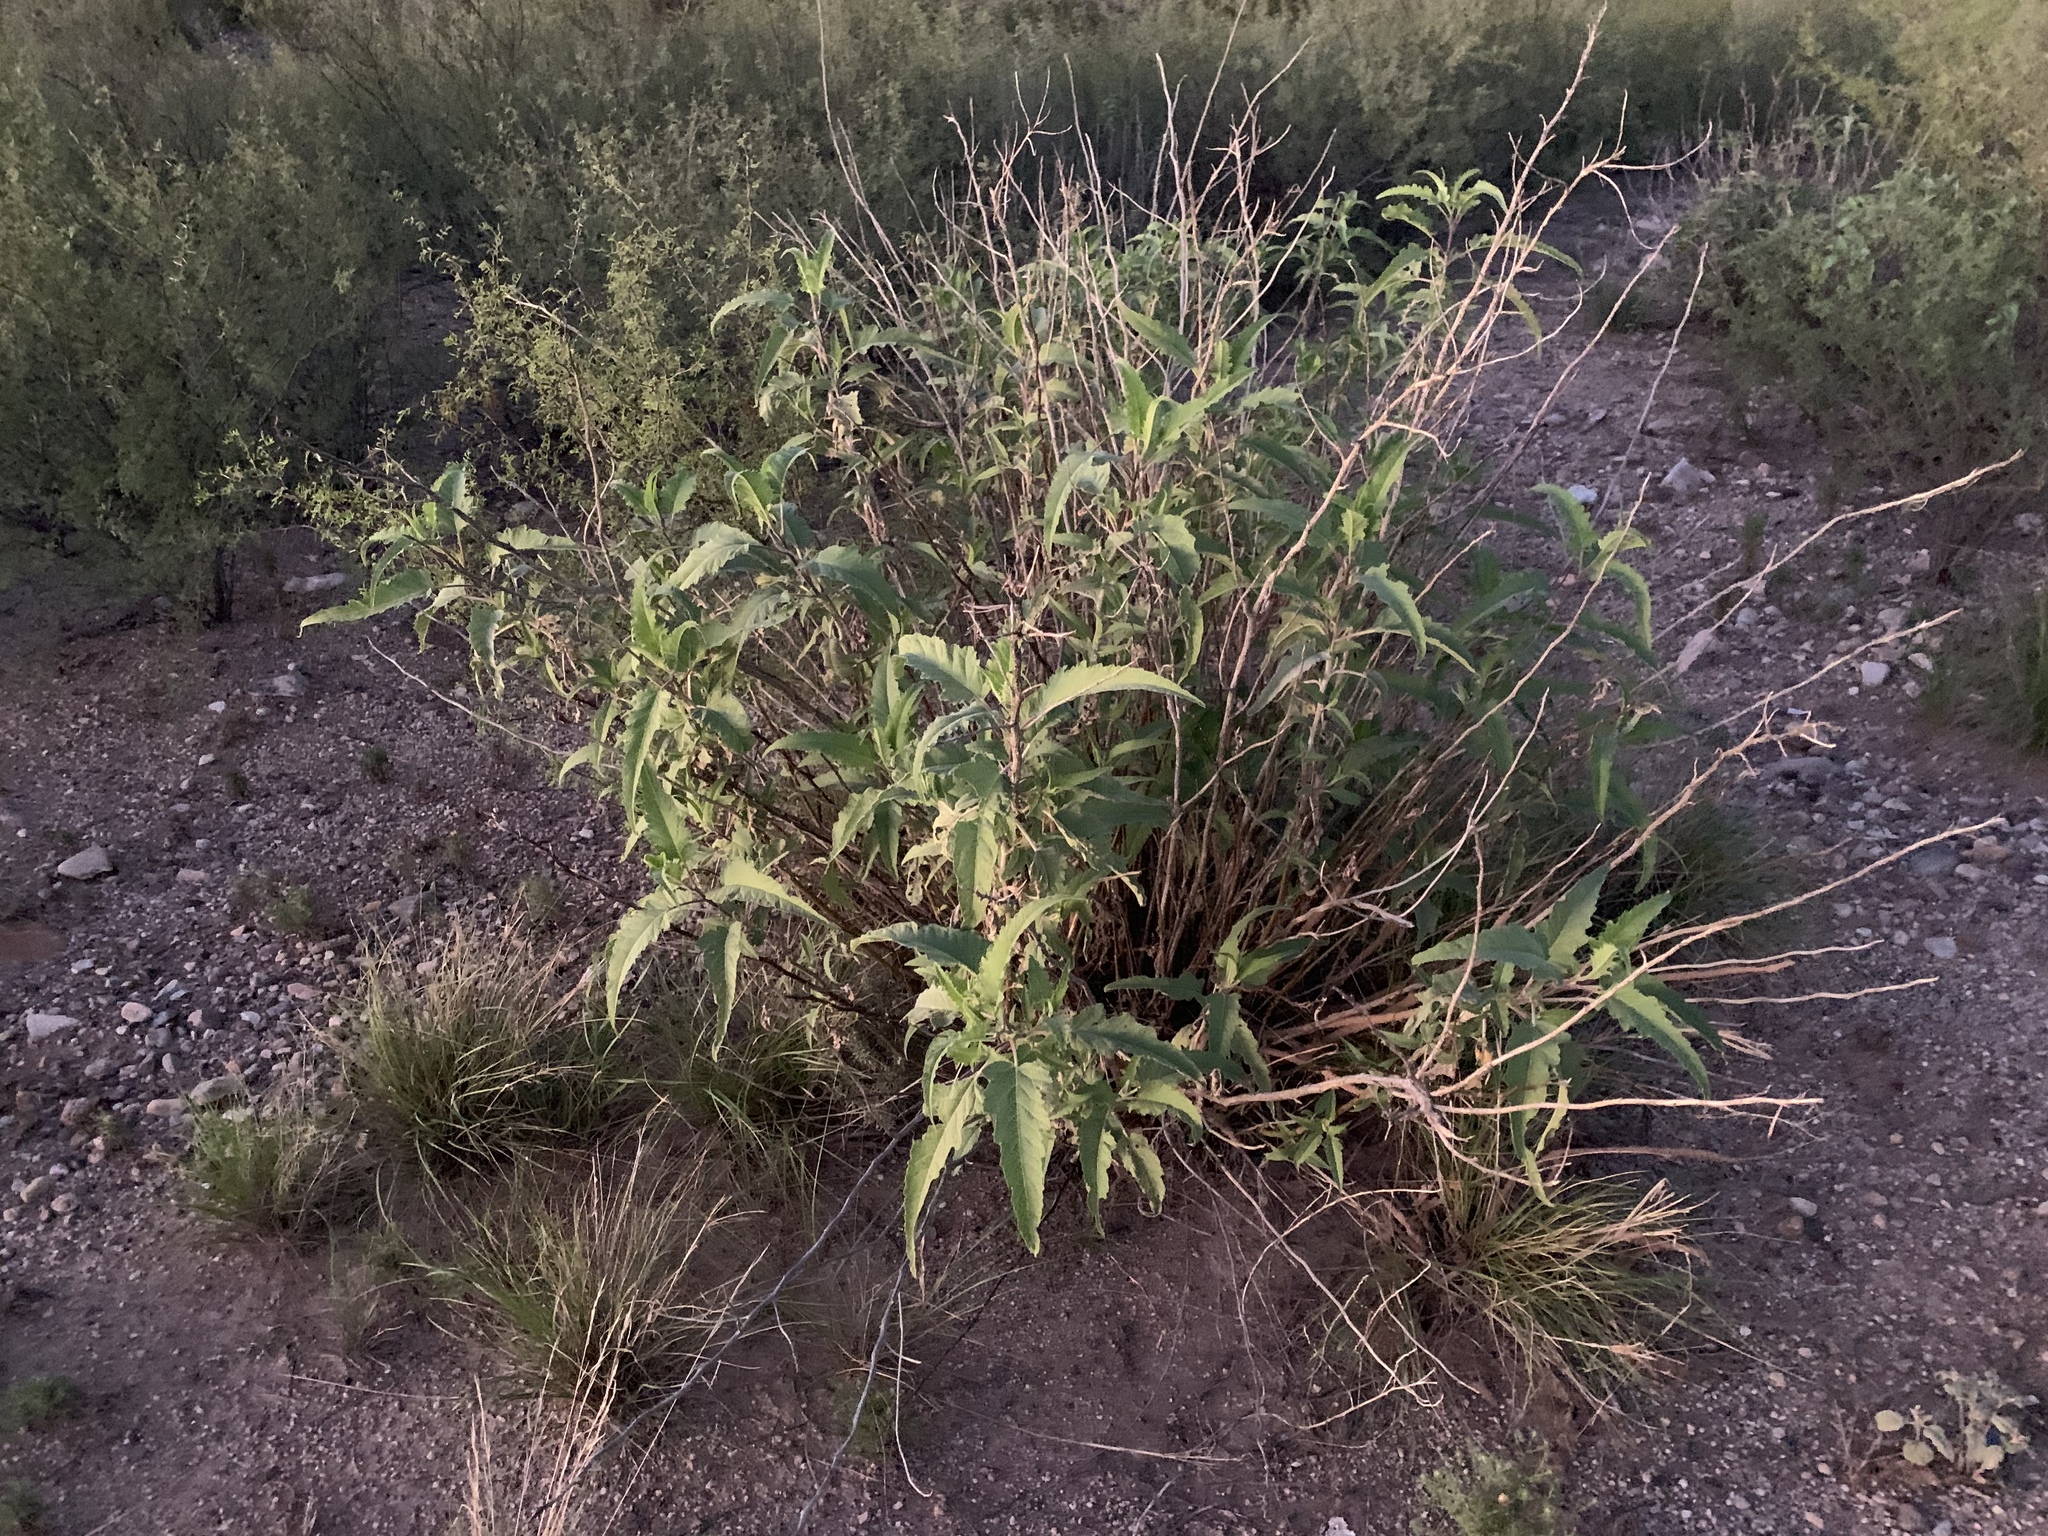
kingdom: Plantae
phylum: Tracheophyta
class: Magnoliopsida
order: Asterales
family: Asteraceae
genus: Ambrosia
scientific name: Ambrosia ambrosioides
